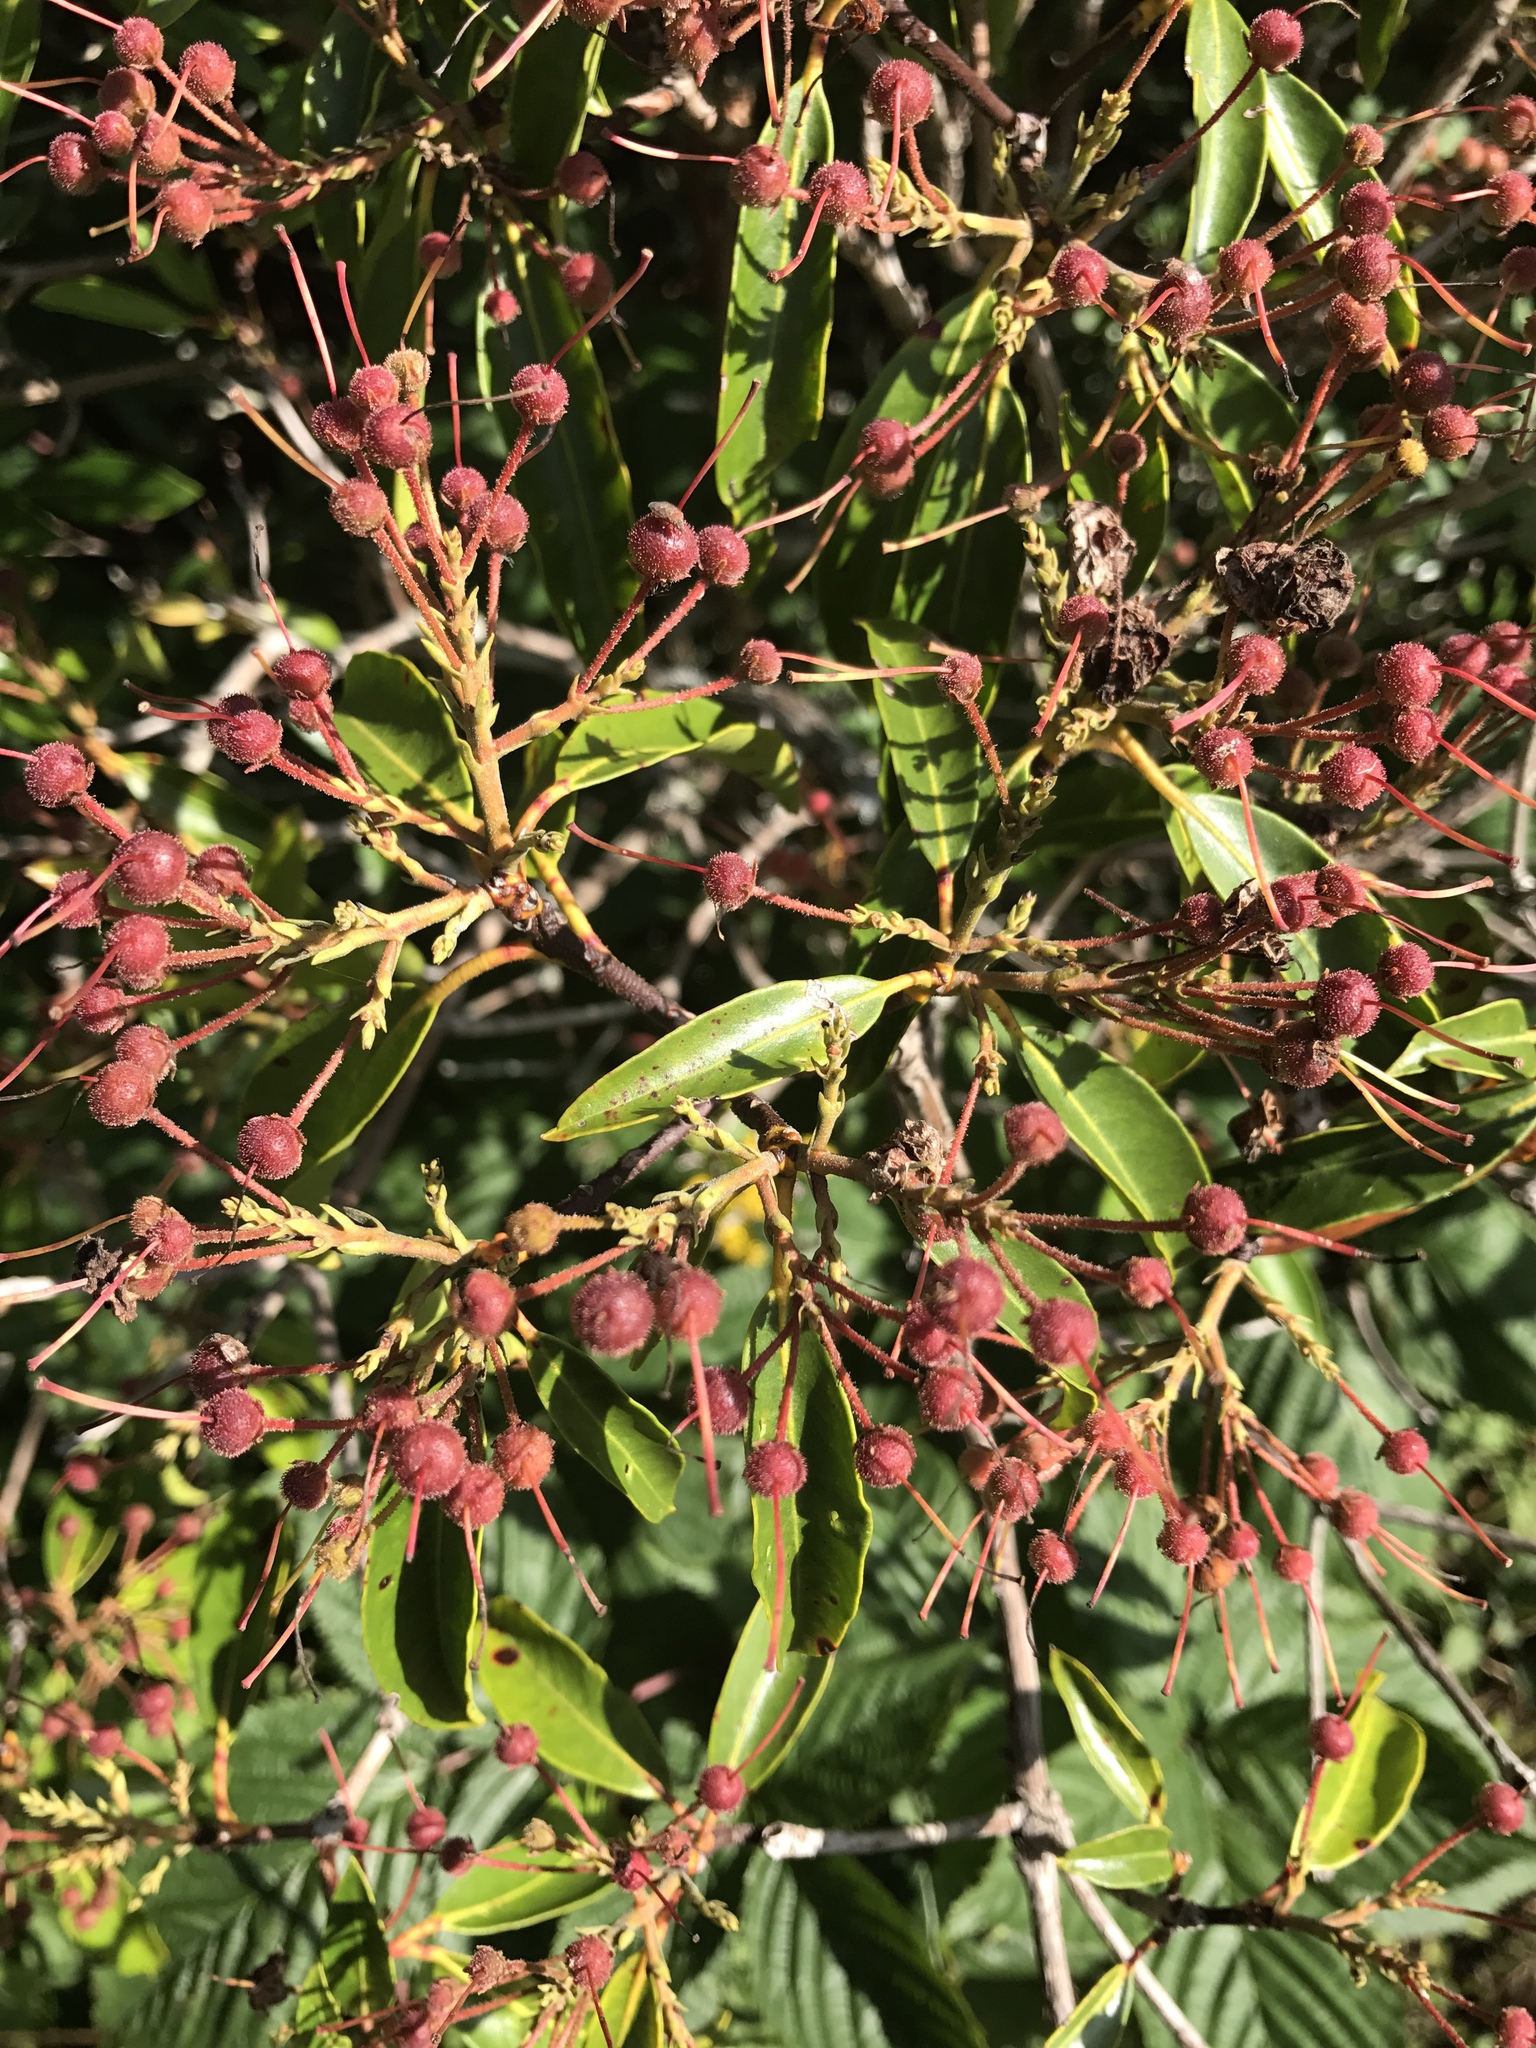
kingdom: Plantae
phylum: Tracheophyta
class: Magnoliopsida
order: Ericales
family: Ericaceae
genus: Kalmia
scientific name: Kalmia latifolia
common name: Mountain-laurel
